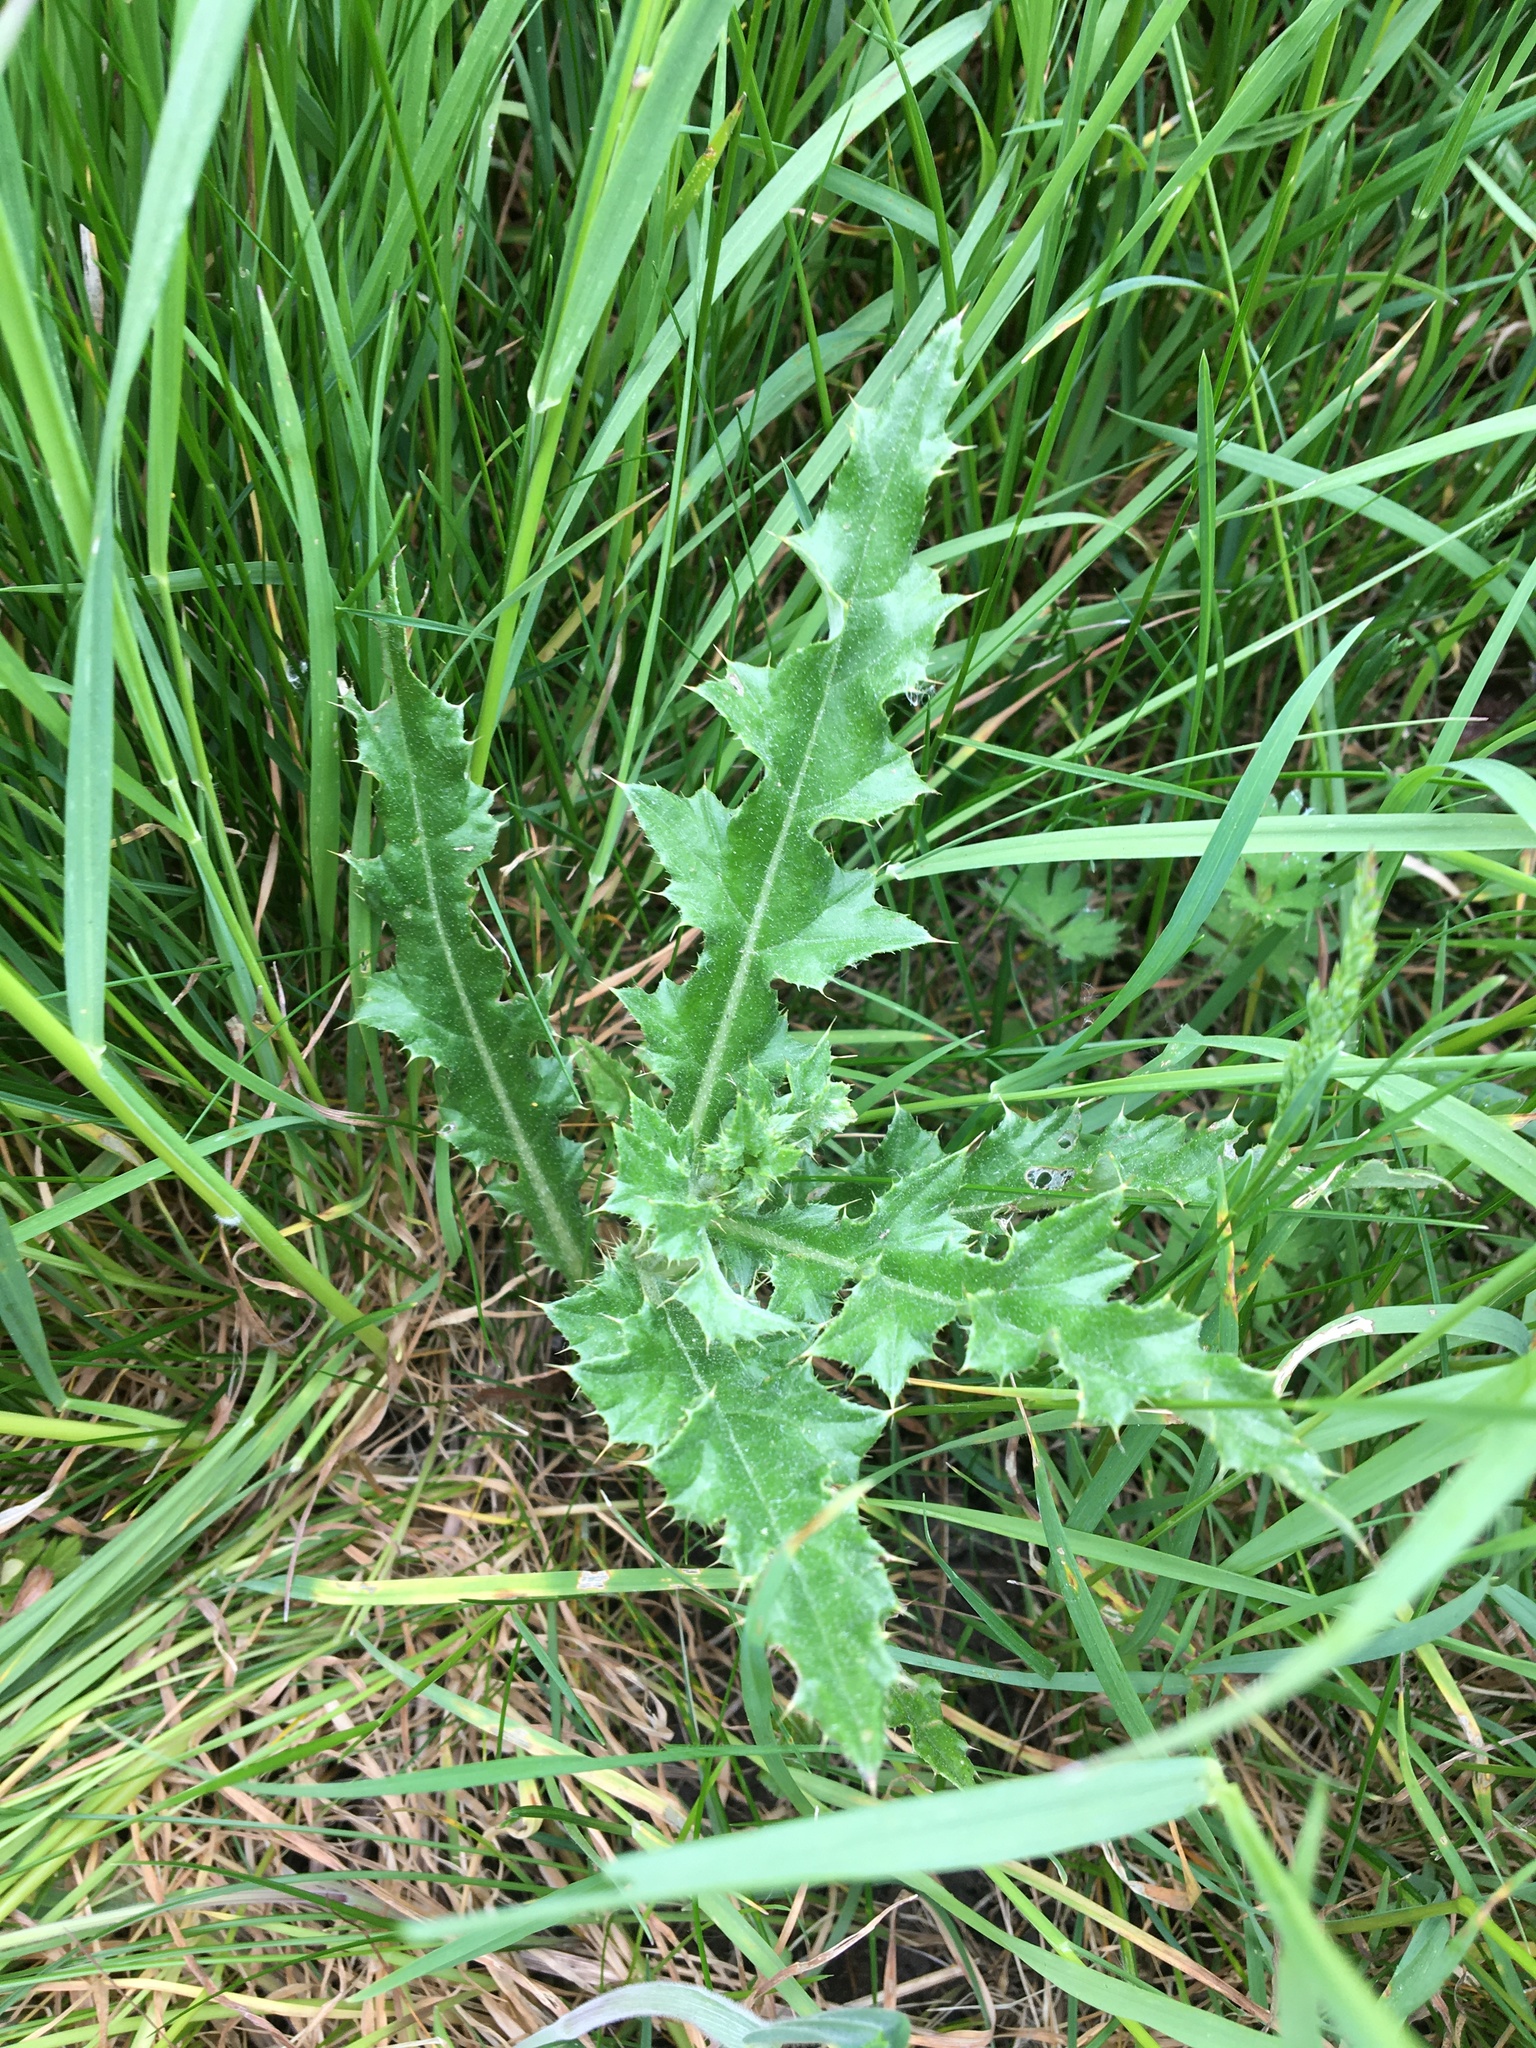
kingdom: Plantae
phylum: Tracheophyta
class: Magnoliopsida
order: Asterales
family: Asteraceae
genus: Cirsium
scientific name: Cirsium arvense
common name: Creeping thistle
